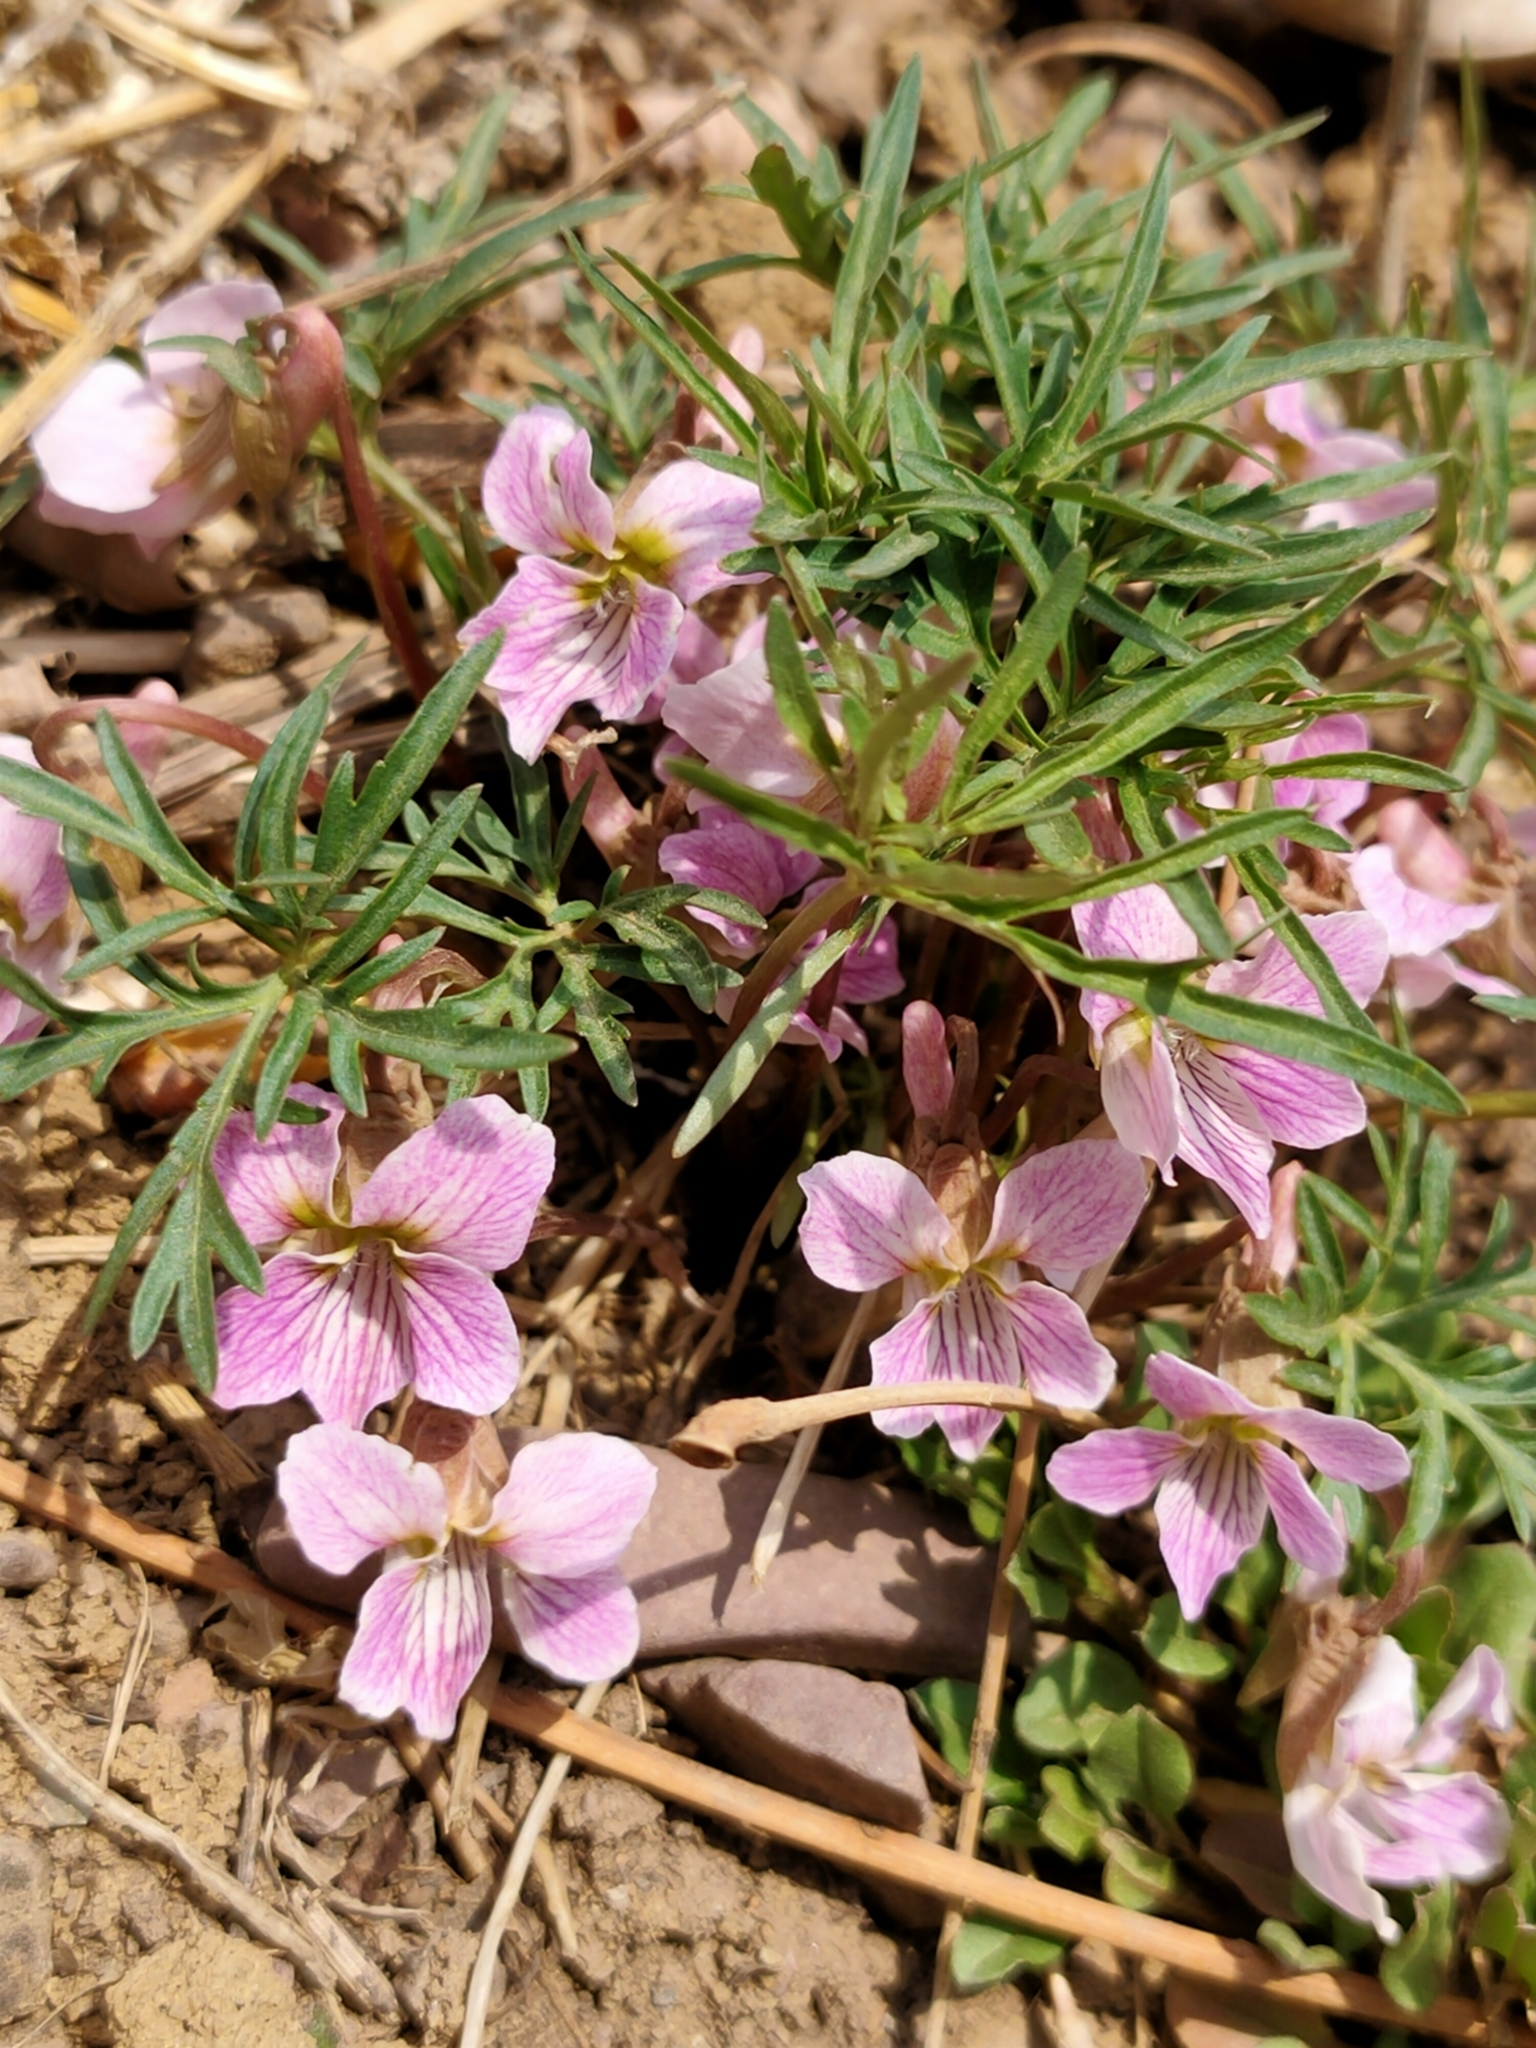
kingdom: Plantae
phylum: Tracheophyta
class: Magnoliopsida
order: Malpighiales
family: Violaceae
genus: Viola
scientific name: Viola multifida
